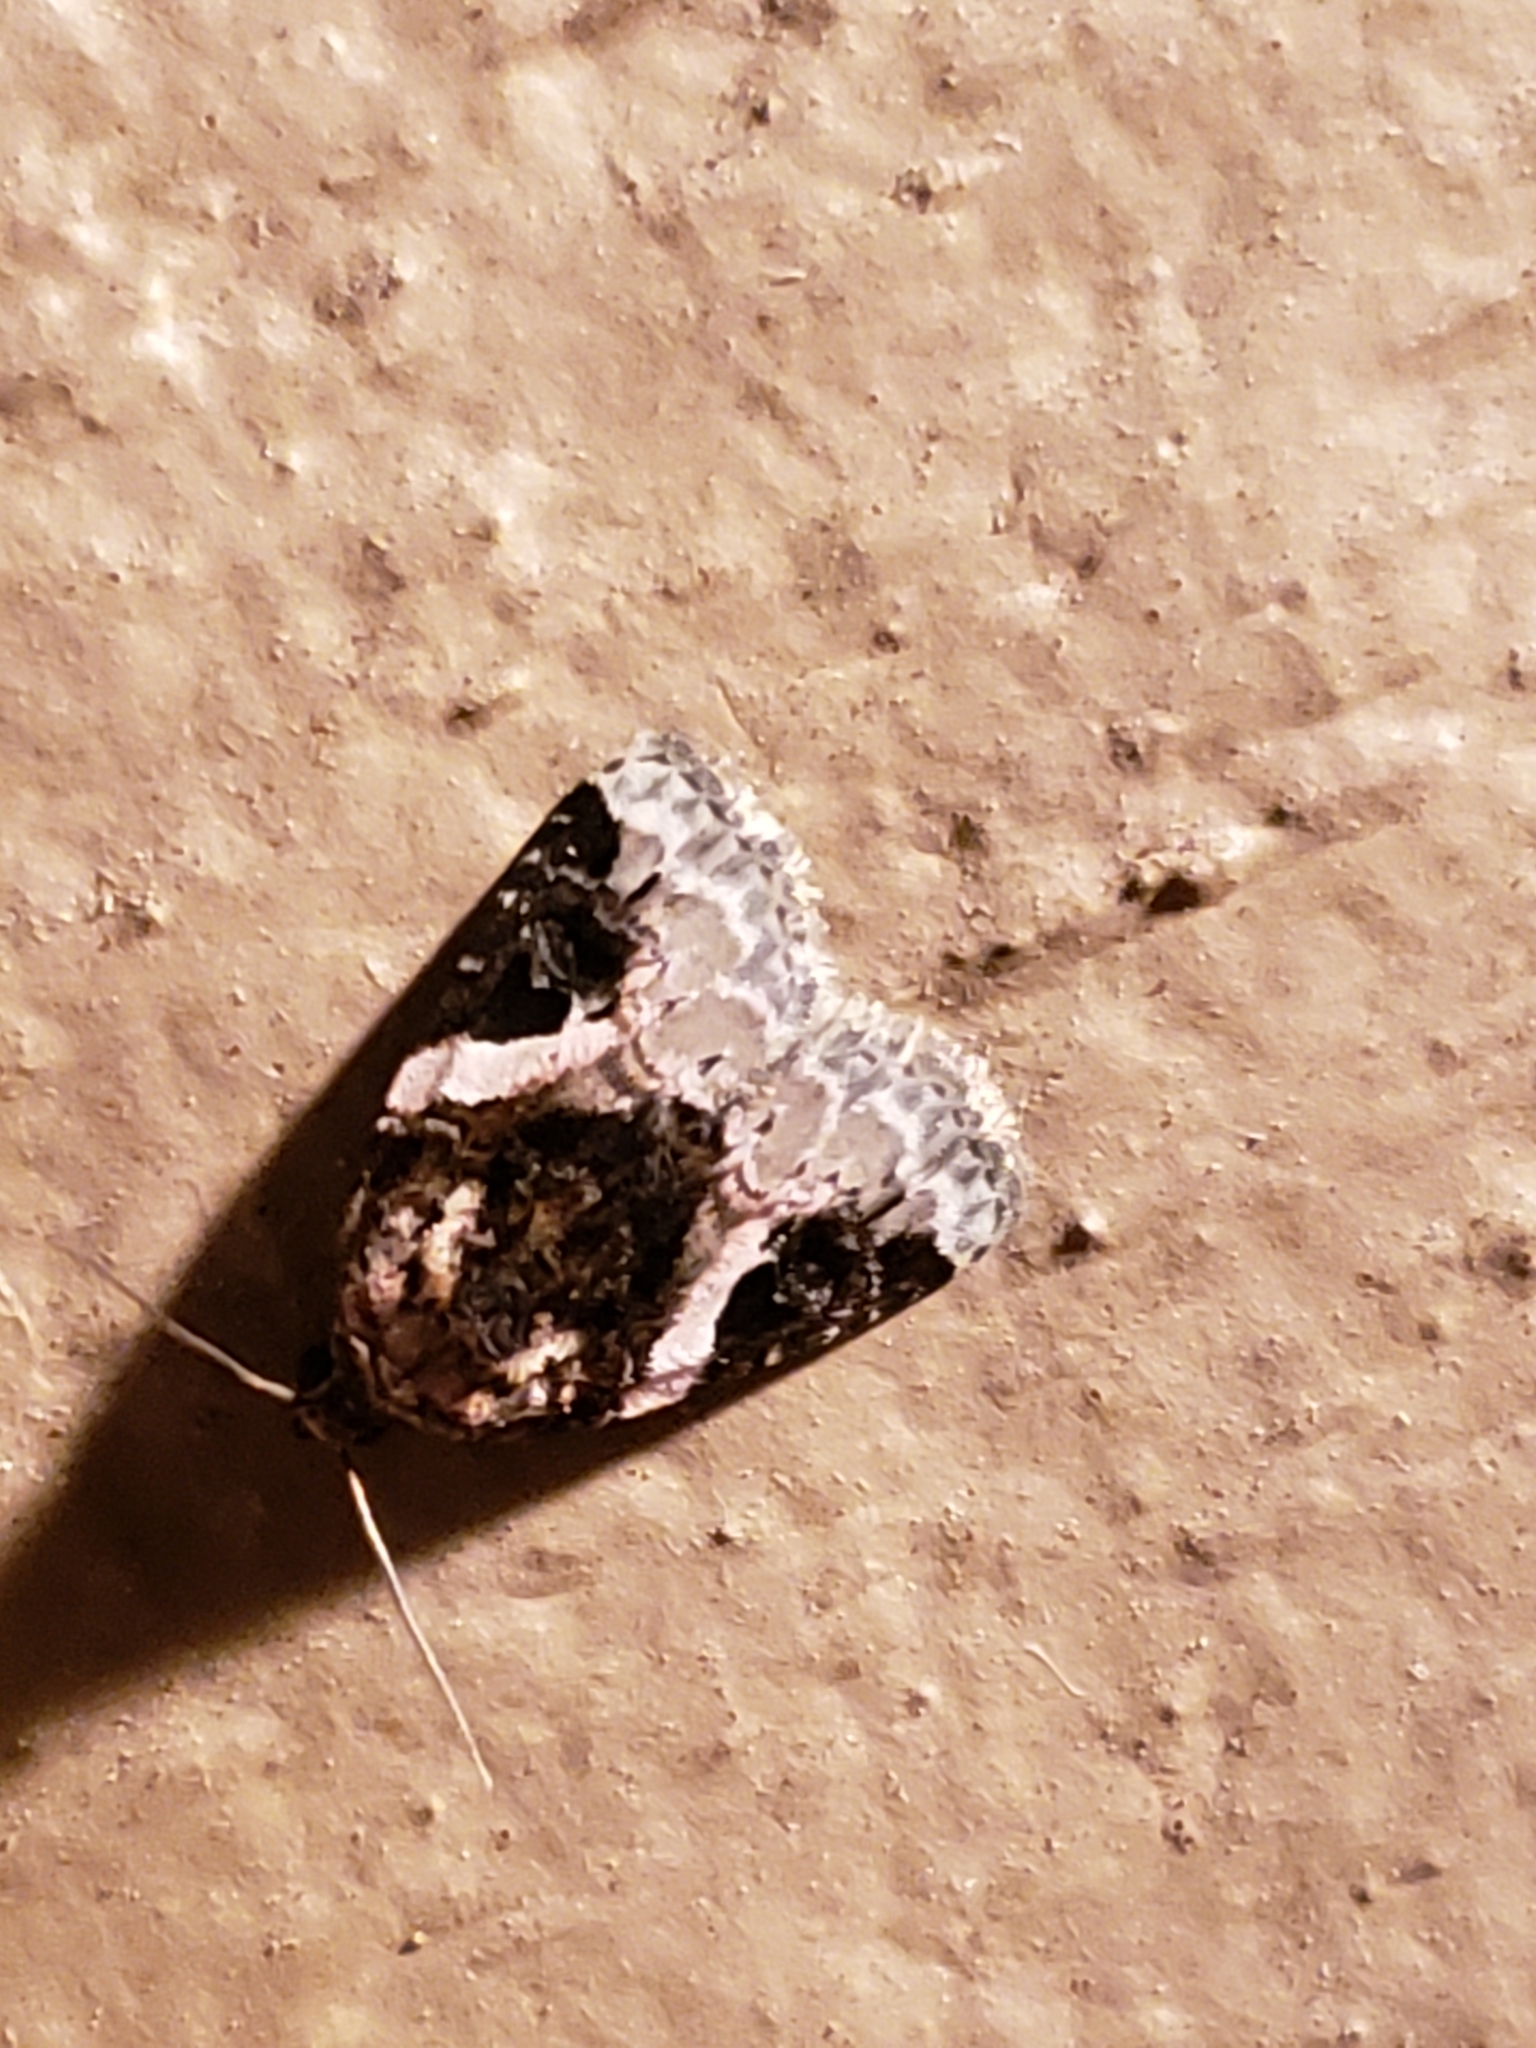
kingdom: Animalia
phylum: Arthropoda
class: Insecta
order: Lepidoptera
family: Noctuidae
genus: Pseudeustrotia
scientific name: Pseudeustrotia carneola
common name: Pink-barred lithacodia moth
